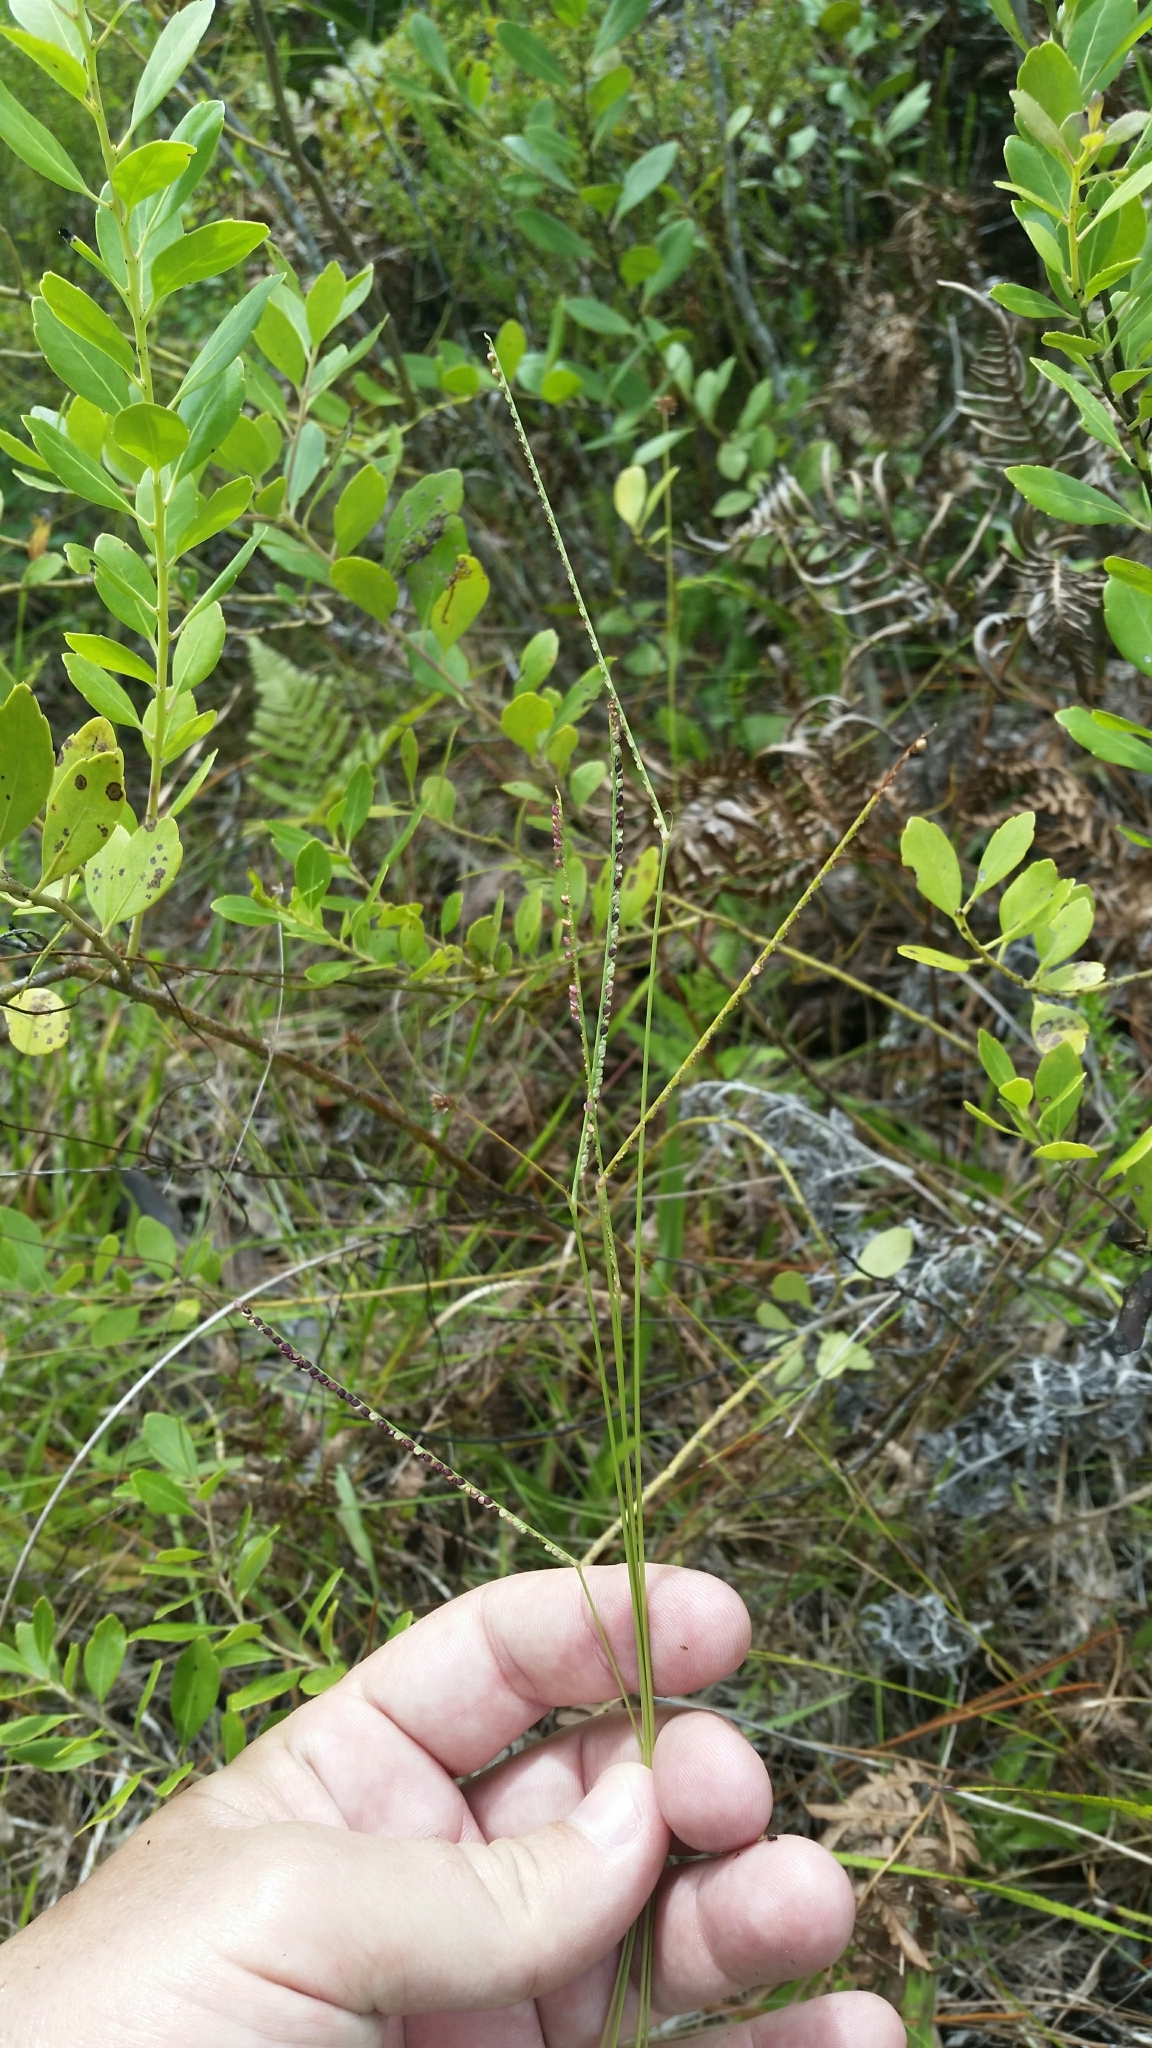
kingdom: Plantae
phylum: Tracheophyta
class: Liliopsida
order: Poales
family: Poaceae
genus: Paspalum
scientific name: Paspalum setaceum
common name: Slender paspalum
